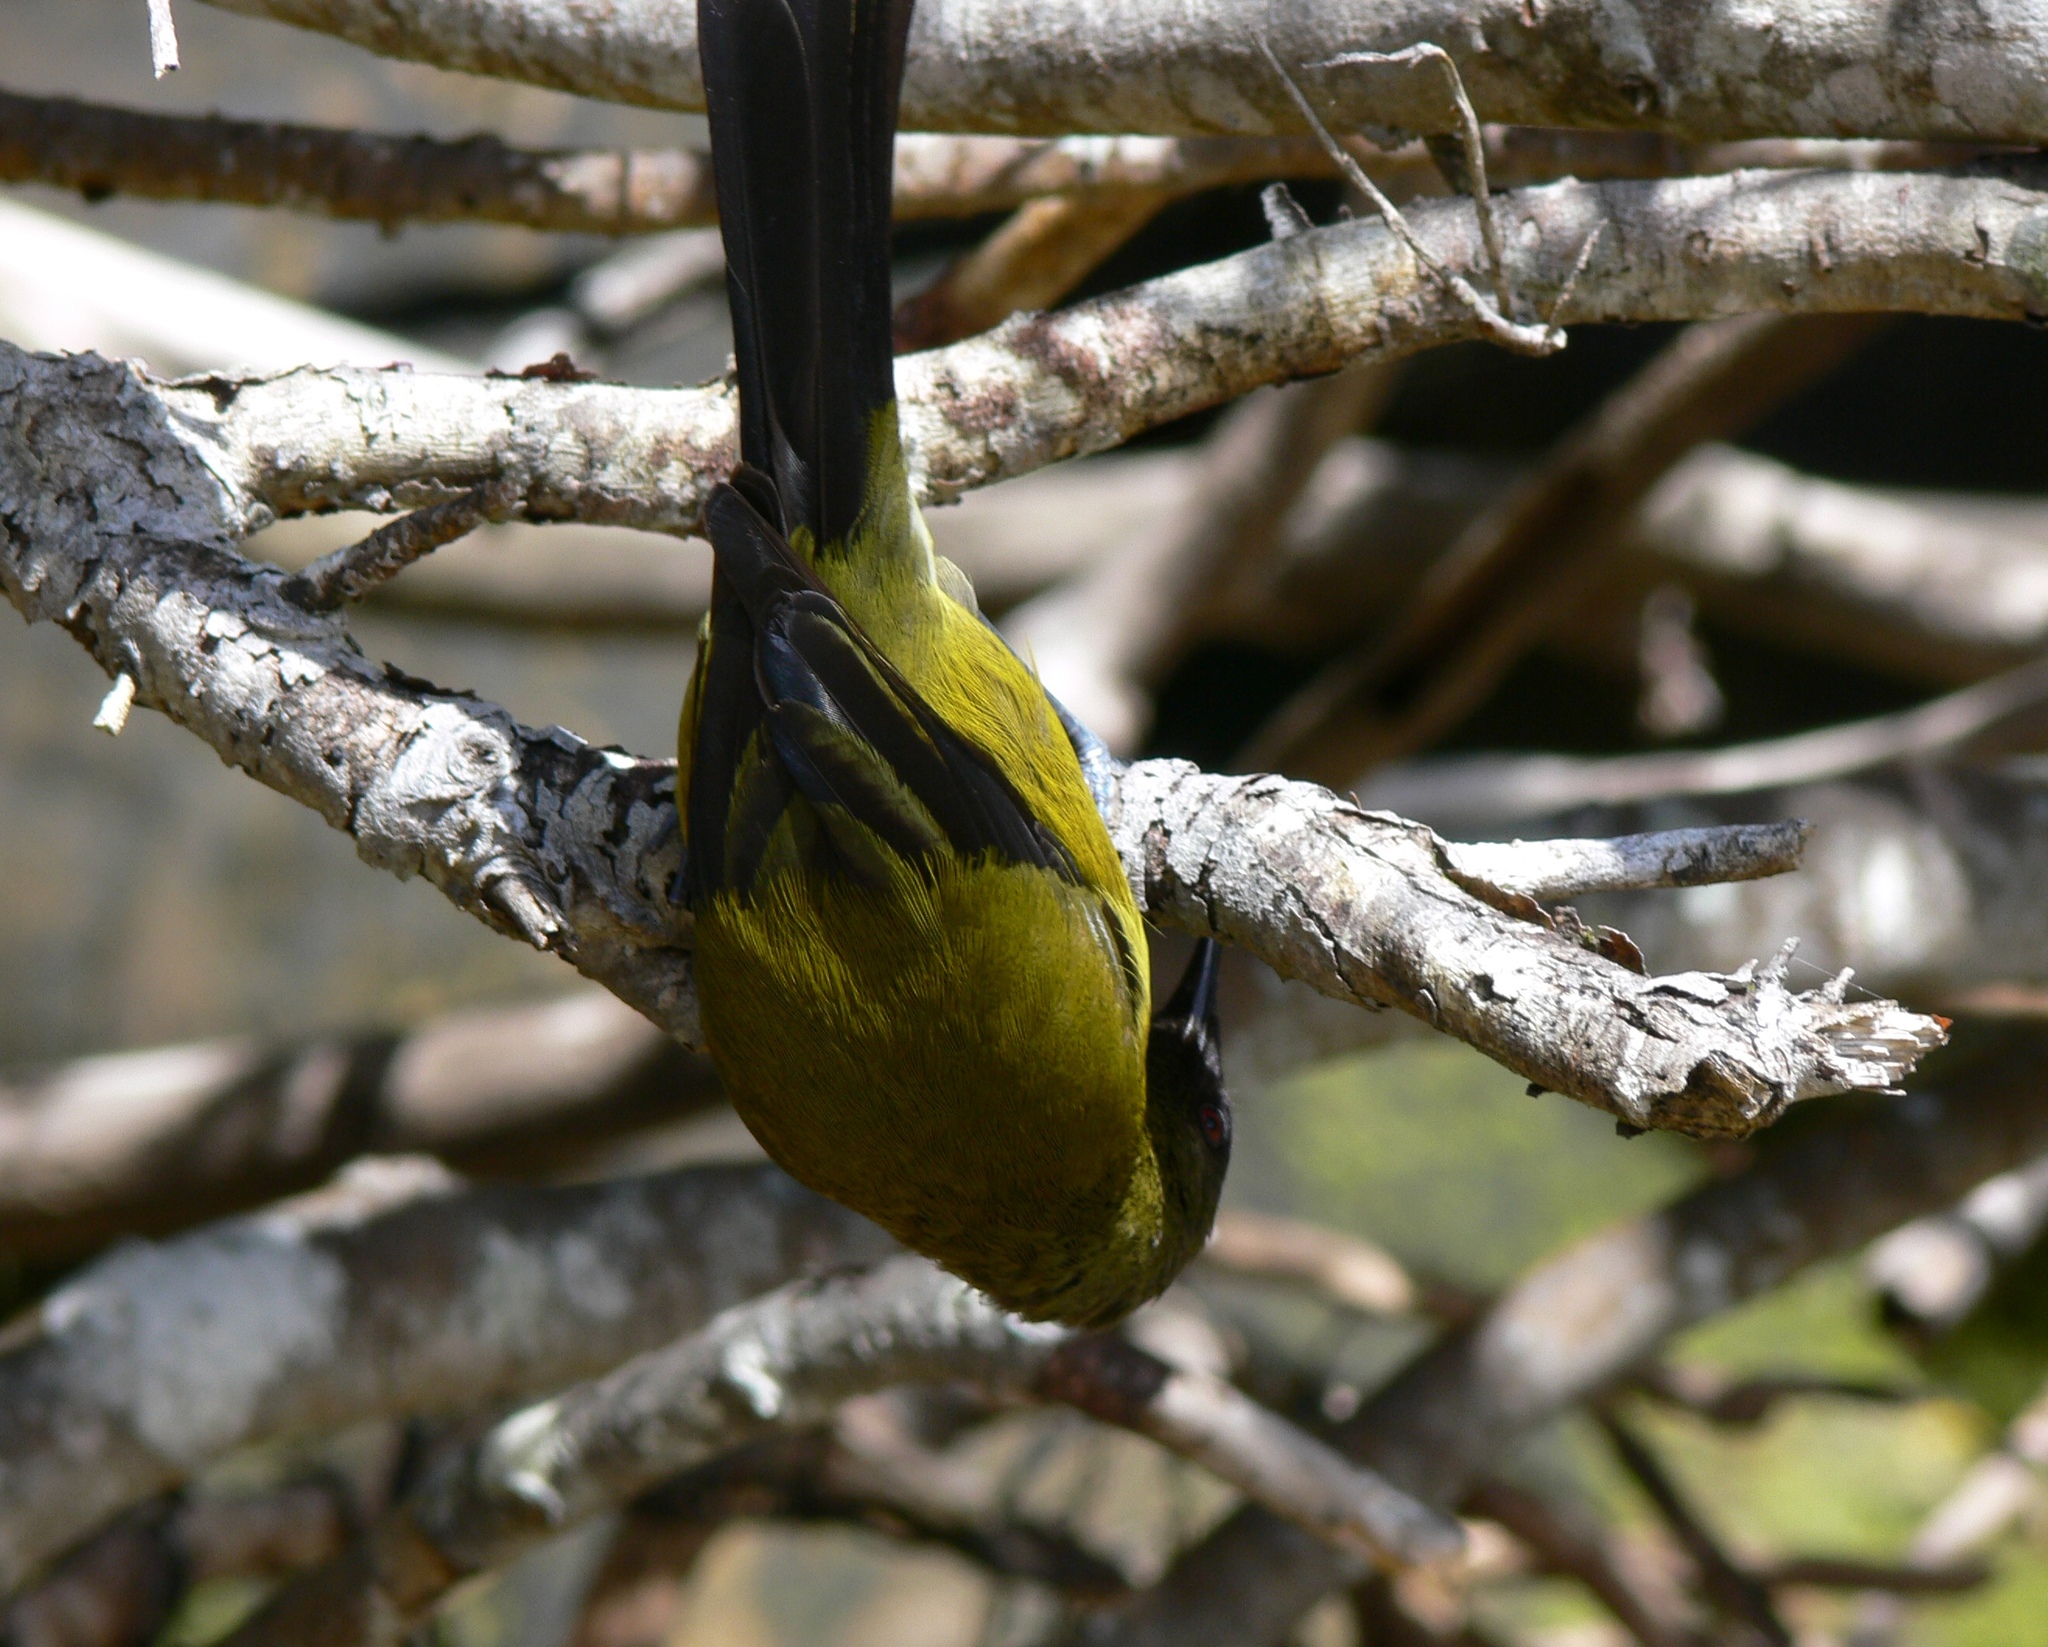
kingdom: Animalia
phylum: Chordata
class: Aves
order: Passeriformes
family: Meliphagidae
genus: Anthornis
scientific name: Anthornis melanura
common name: New zealand bellbird
